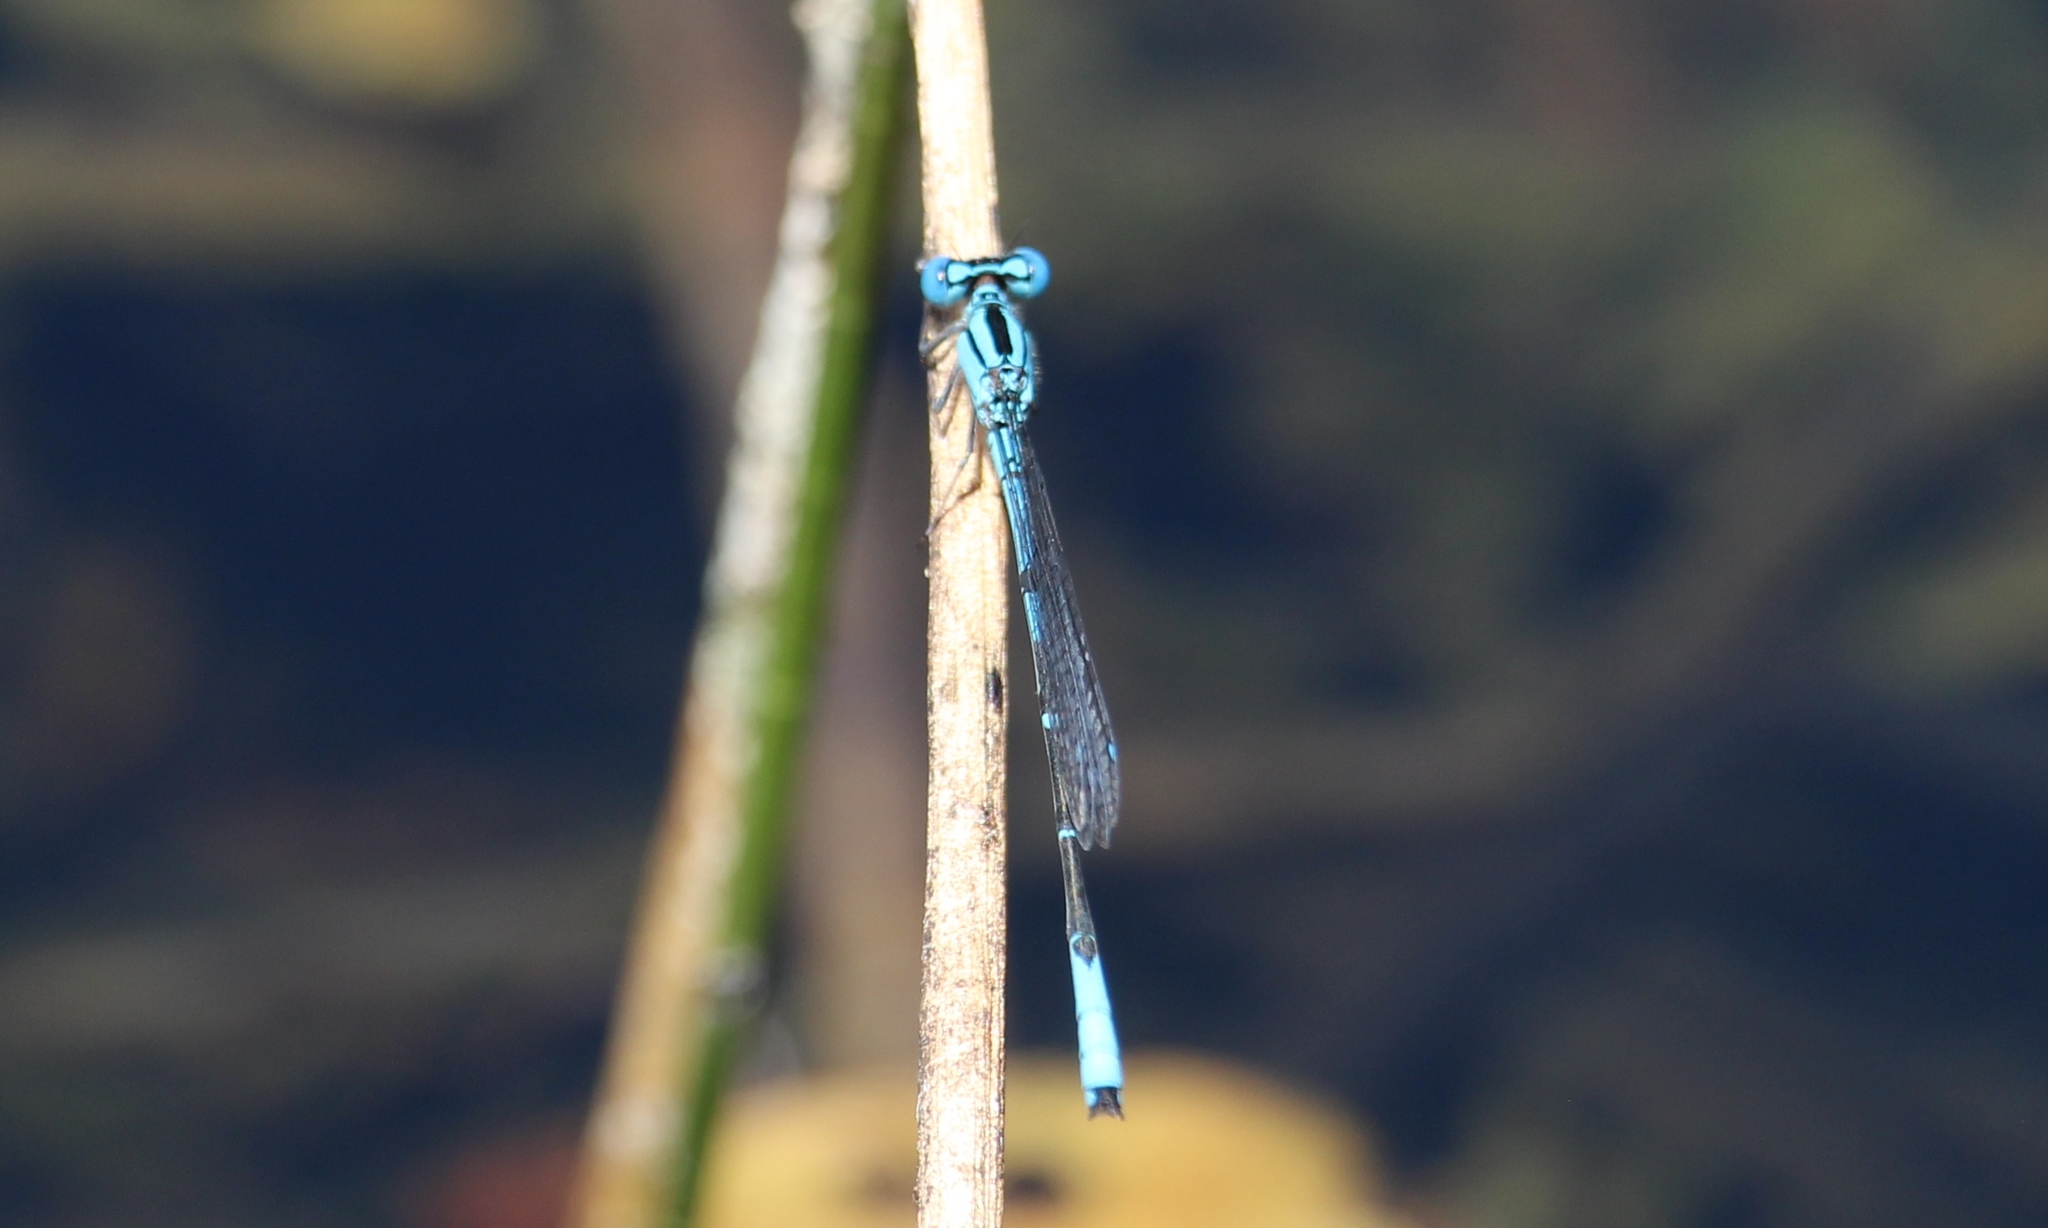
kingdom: Animalia
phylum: Arthropoda
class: Insecta
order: Odonata
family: Coenagrionidae
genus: Enacantha
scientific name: Enacantha caribbea
